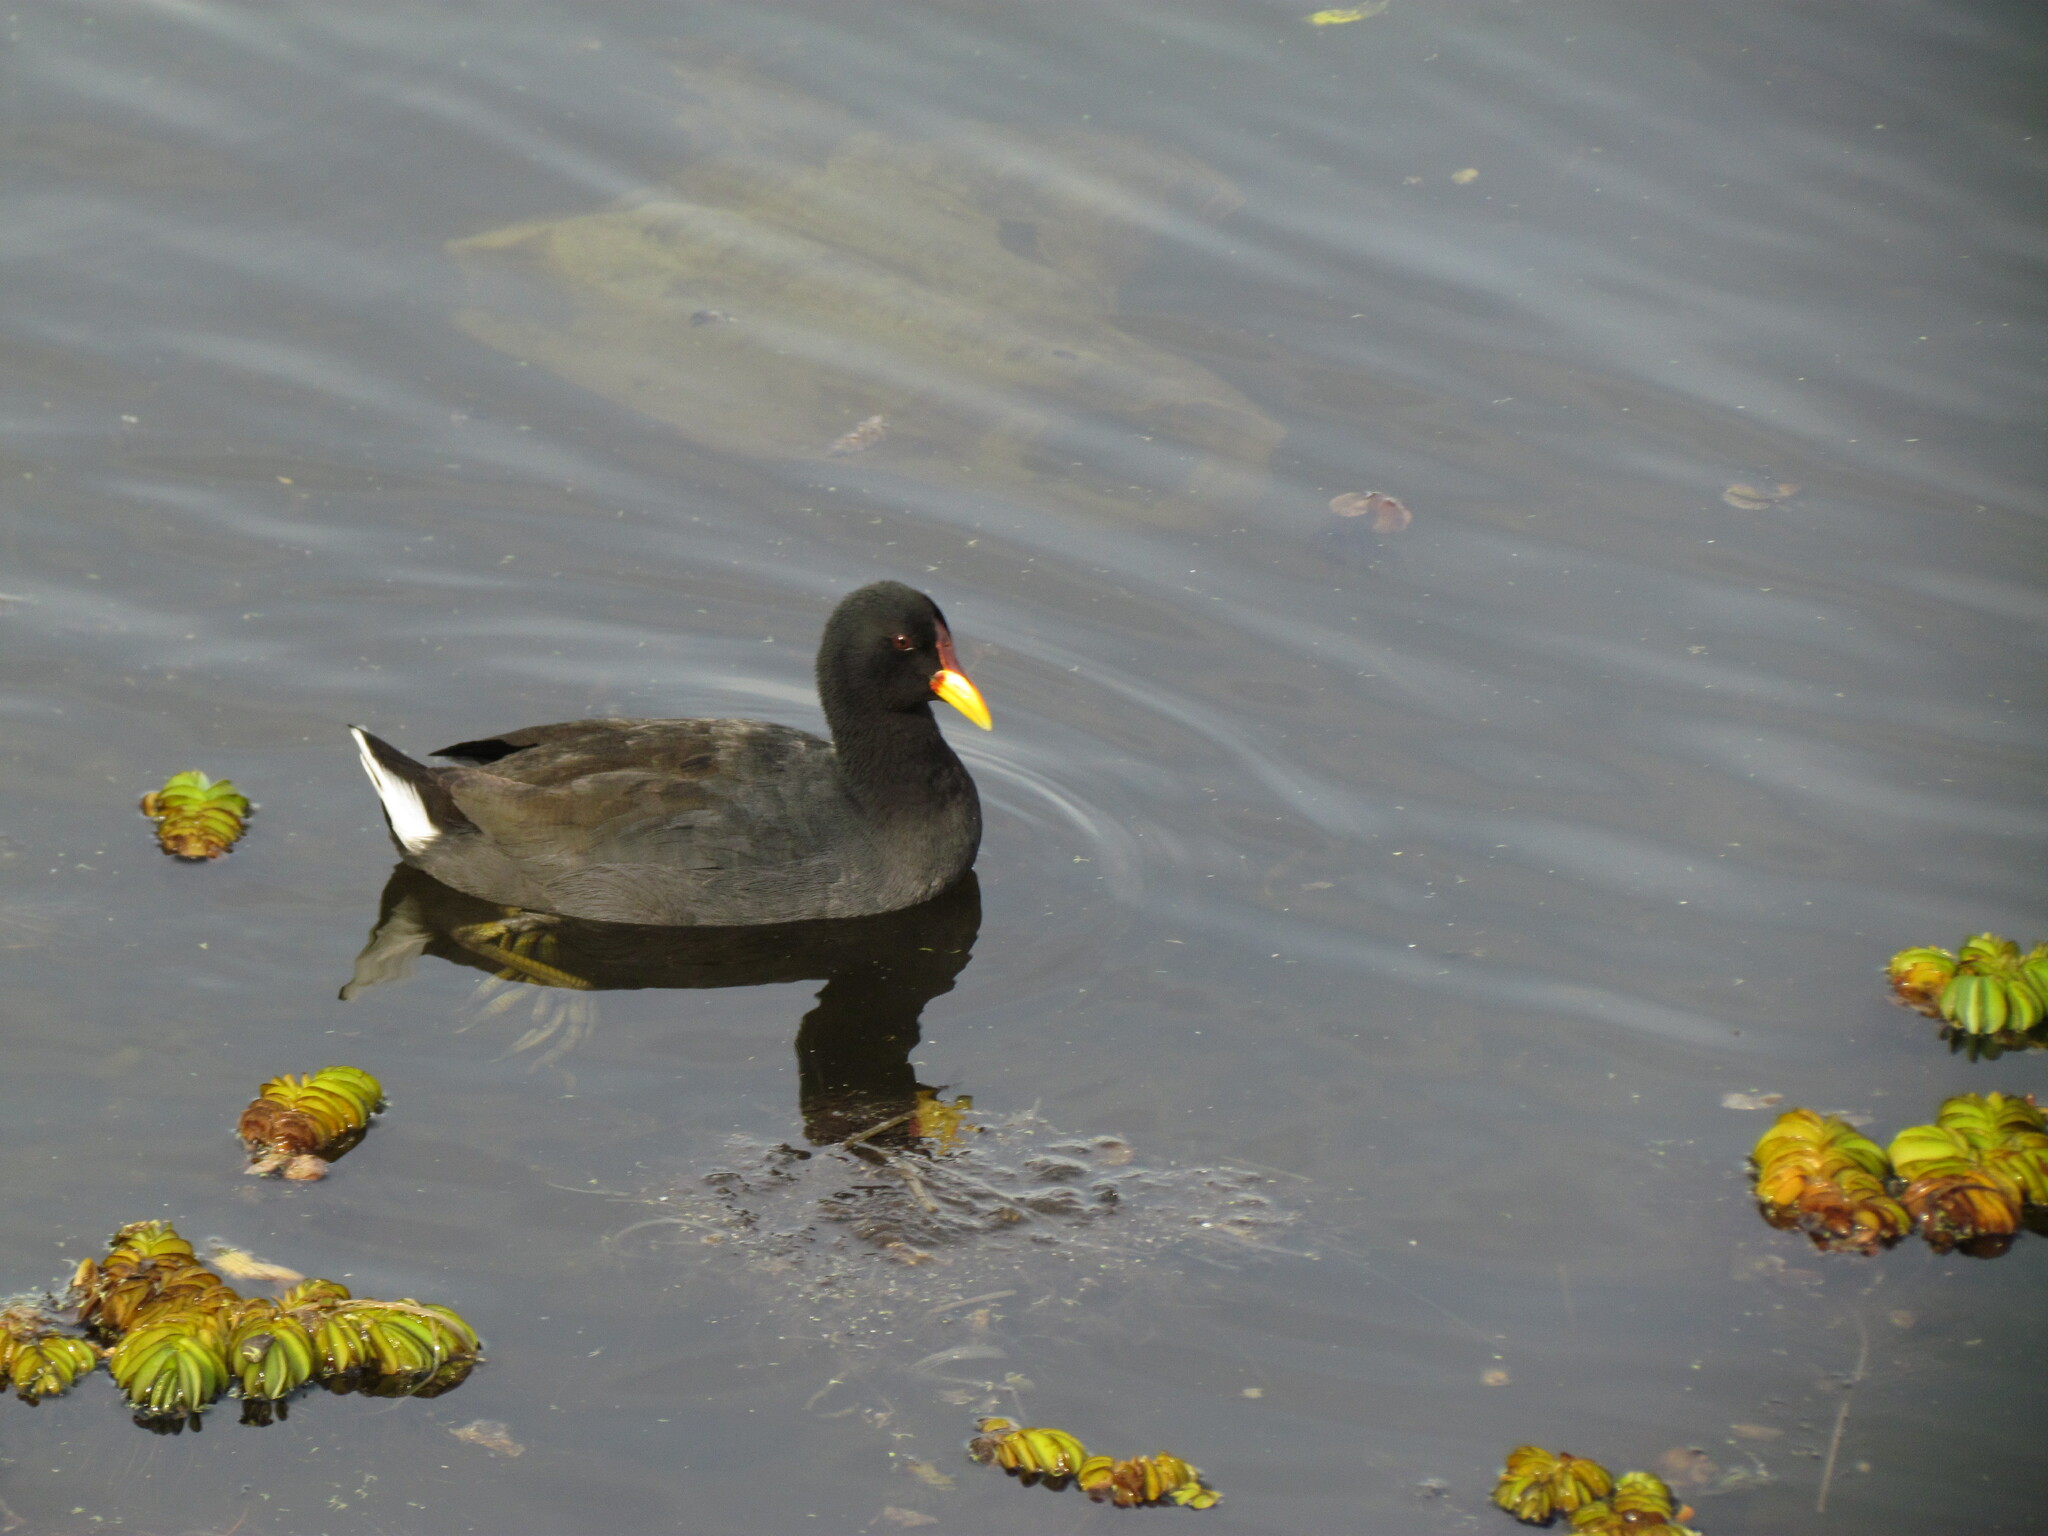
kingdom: Animalia
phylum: Chordata
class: Aves
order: Gruiformes
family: Rallidae
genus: Fulica
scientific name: Fulica rufifrons
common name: Red-fronted coot
